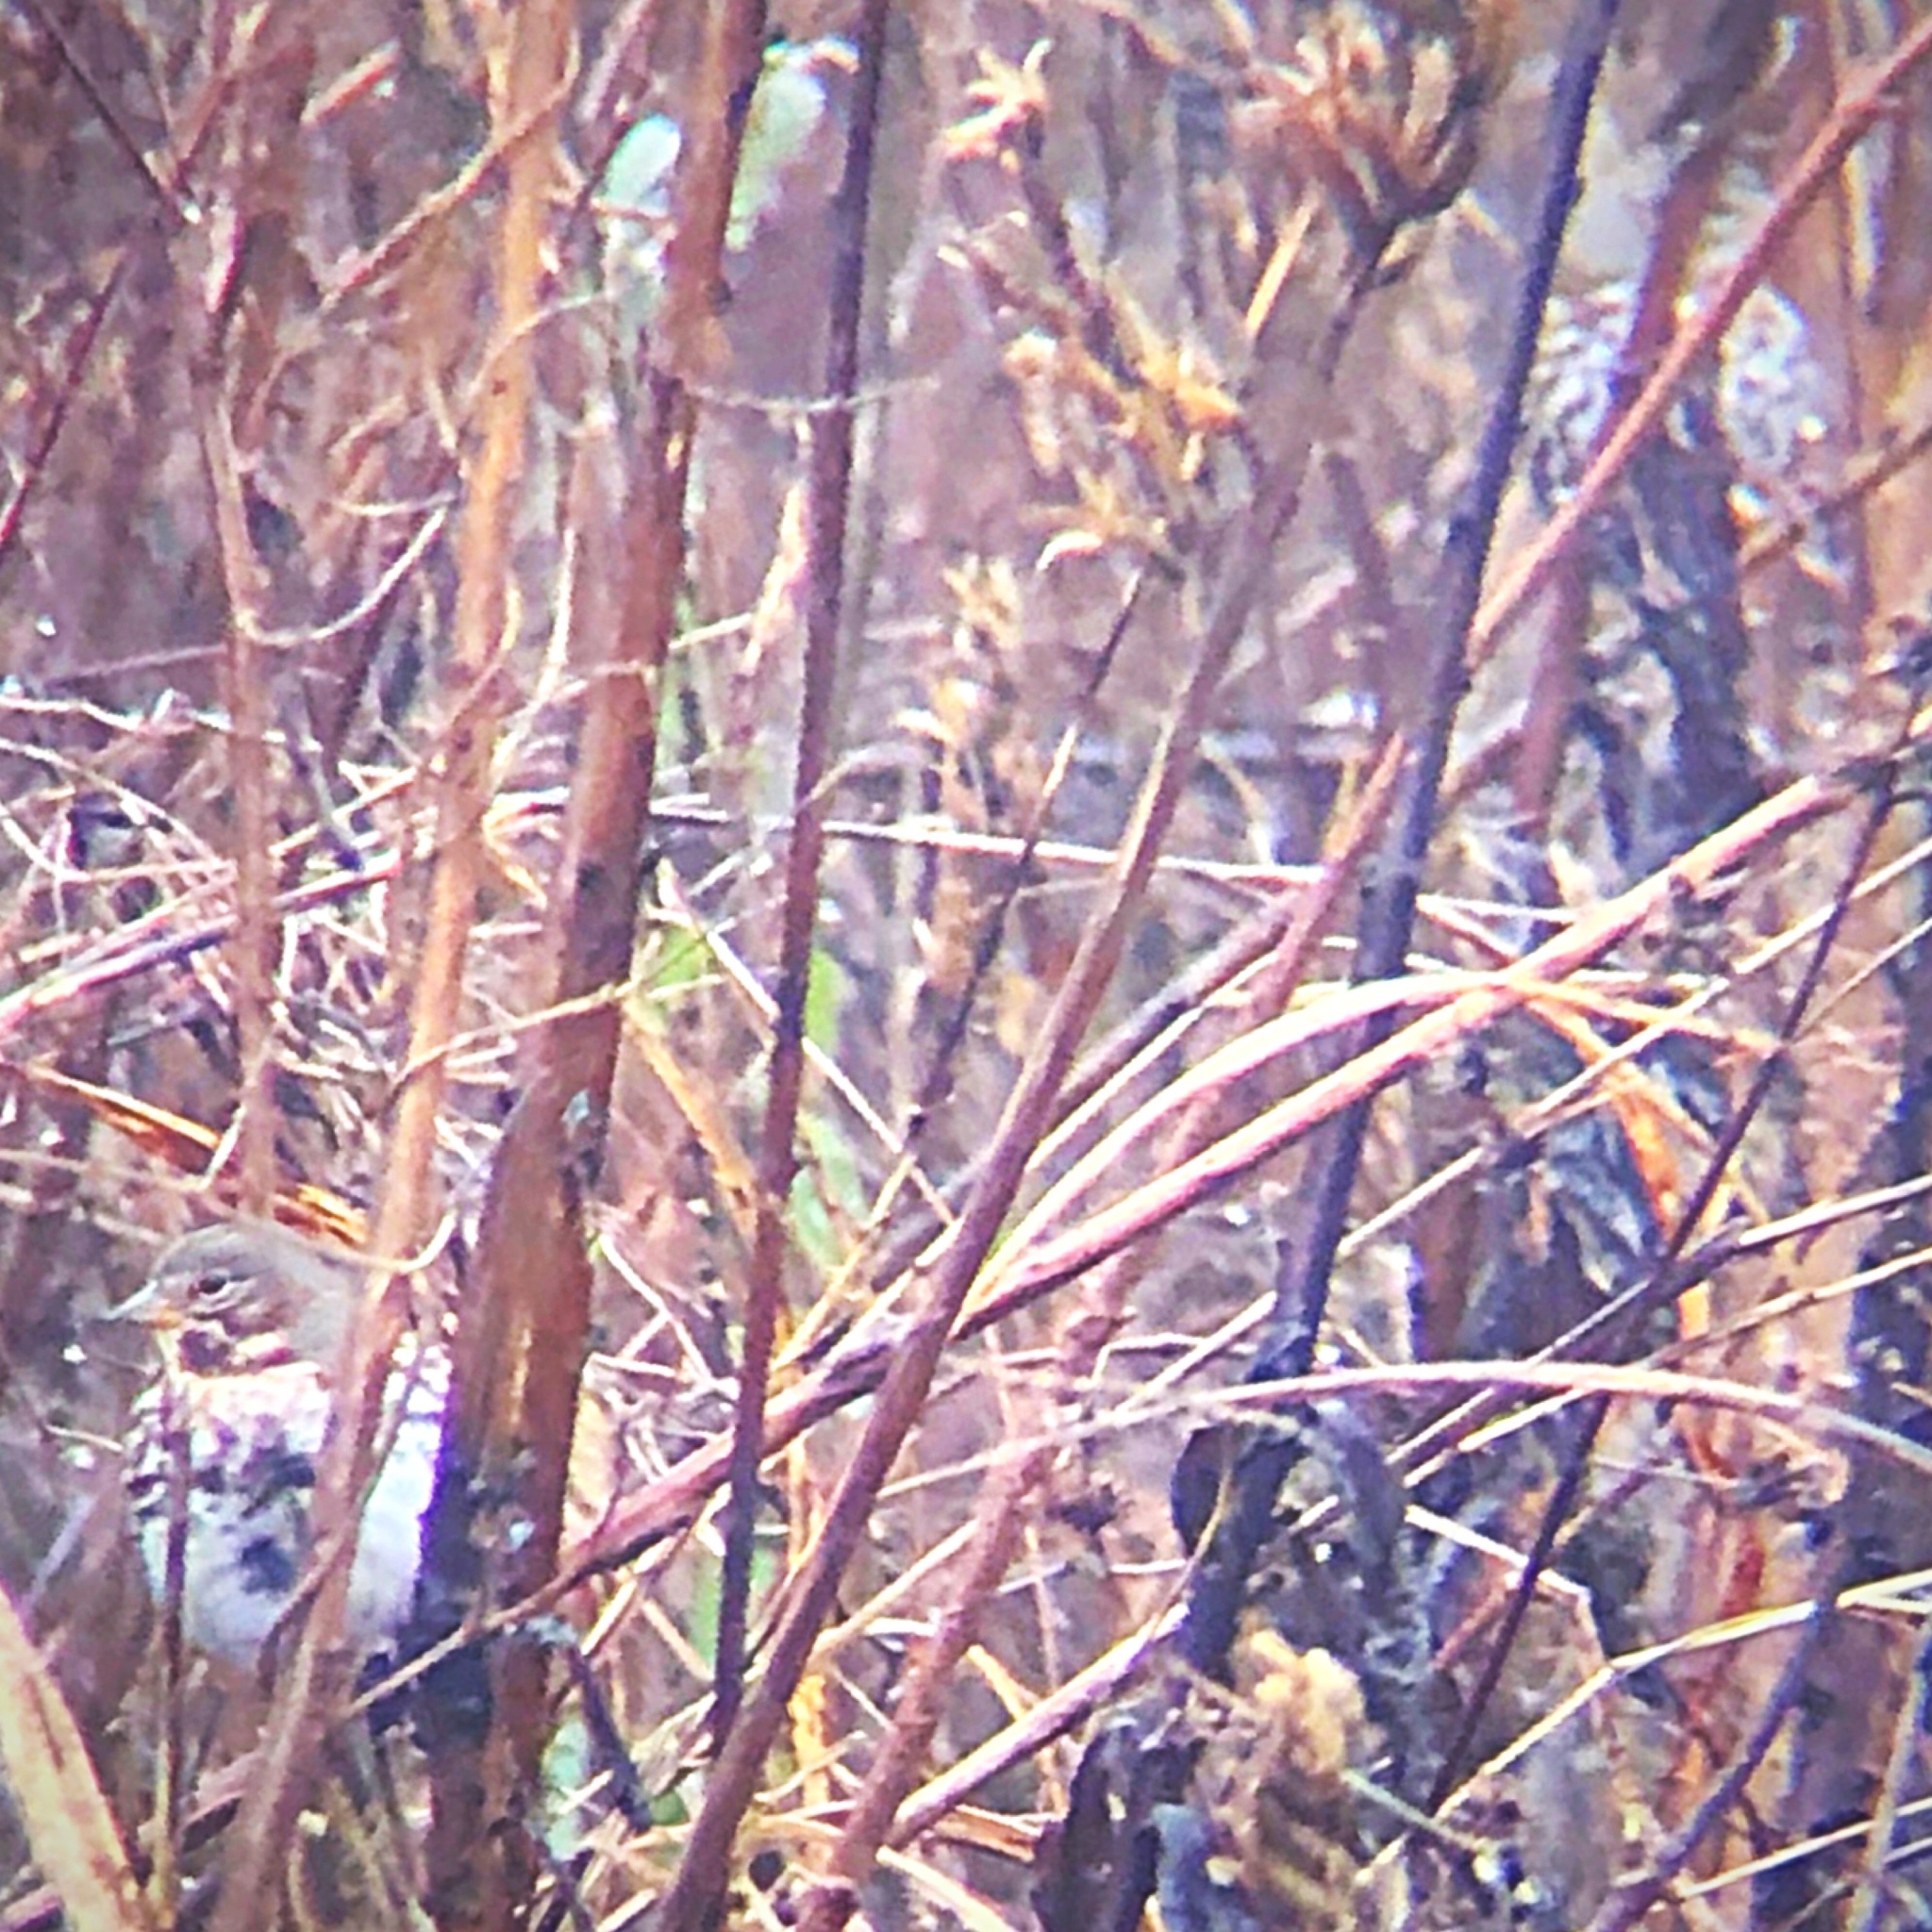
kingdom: Animalia
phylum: Chordata
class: Aves
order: Passeriformes
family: Passerellidae
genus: Passerella
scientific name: Passerella iliaca
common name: Fox sparrow
